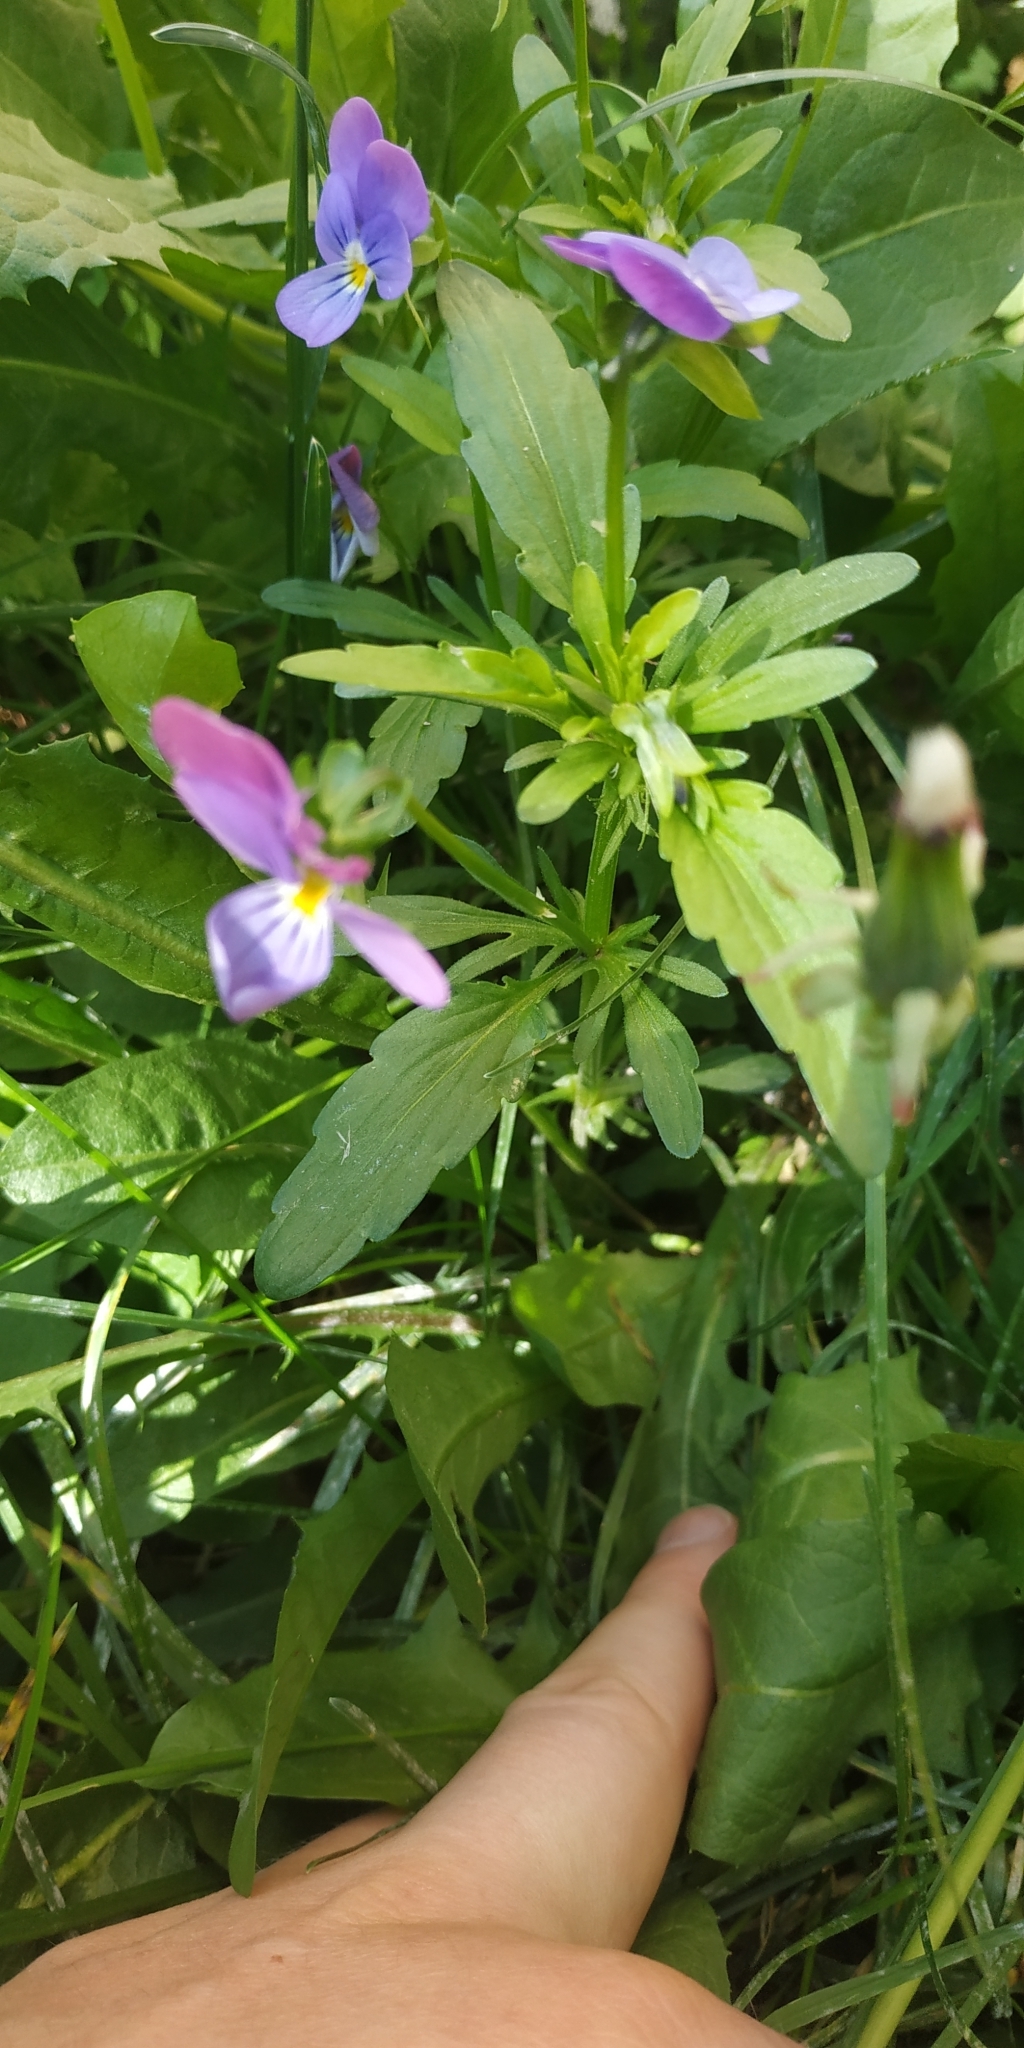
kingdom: Plantae
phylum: Tracheophyta
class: Magnoliopsida
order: Malpighiales
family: Violaceae
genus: Viola
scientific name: Viola tricolor
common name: Pansy
